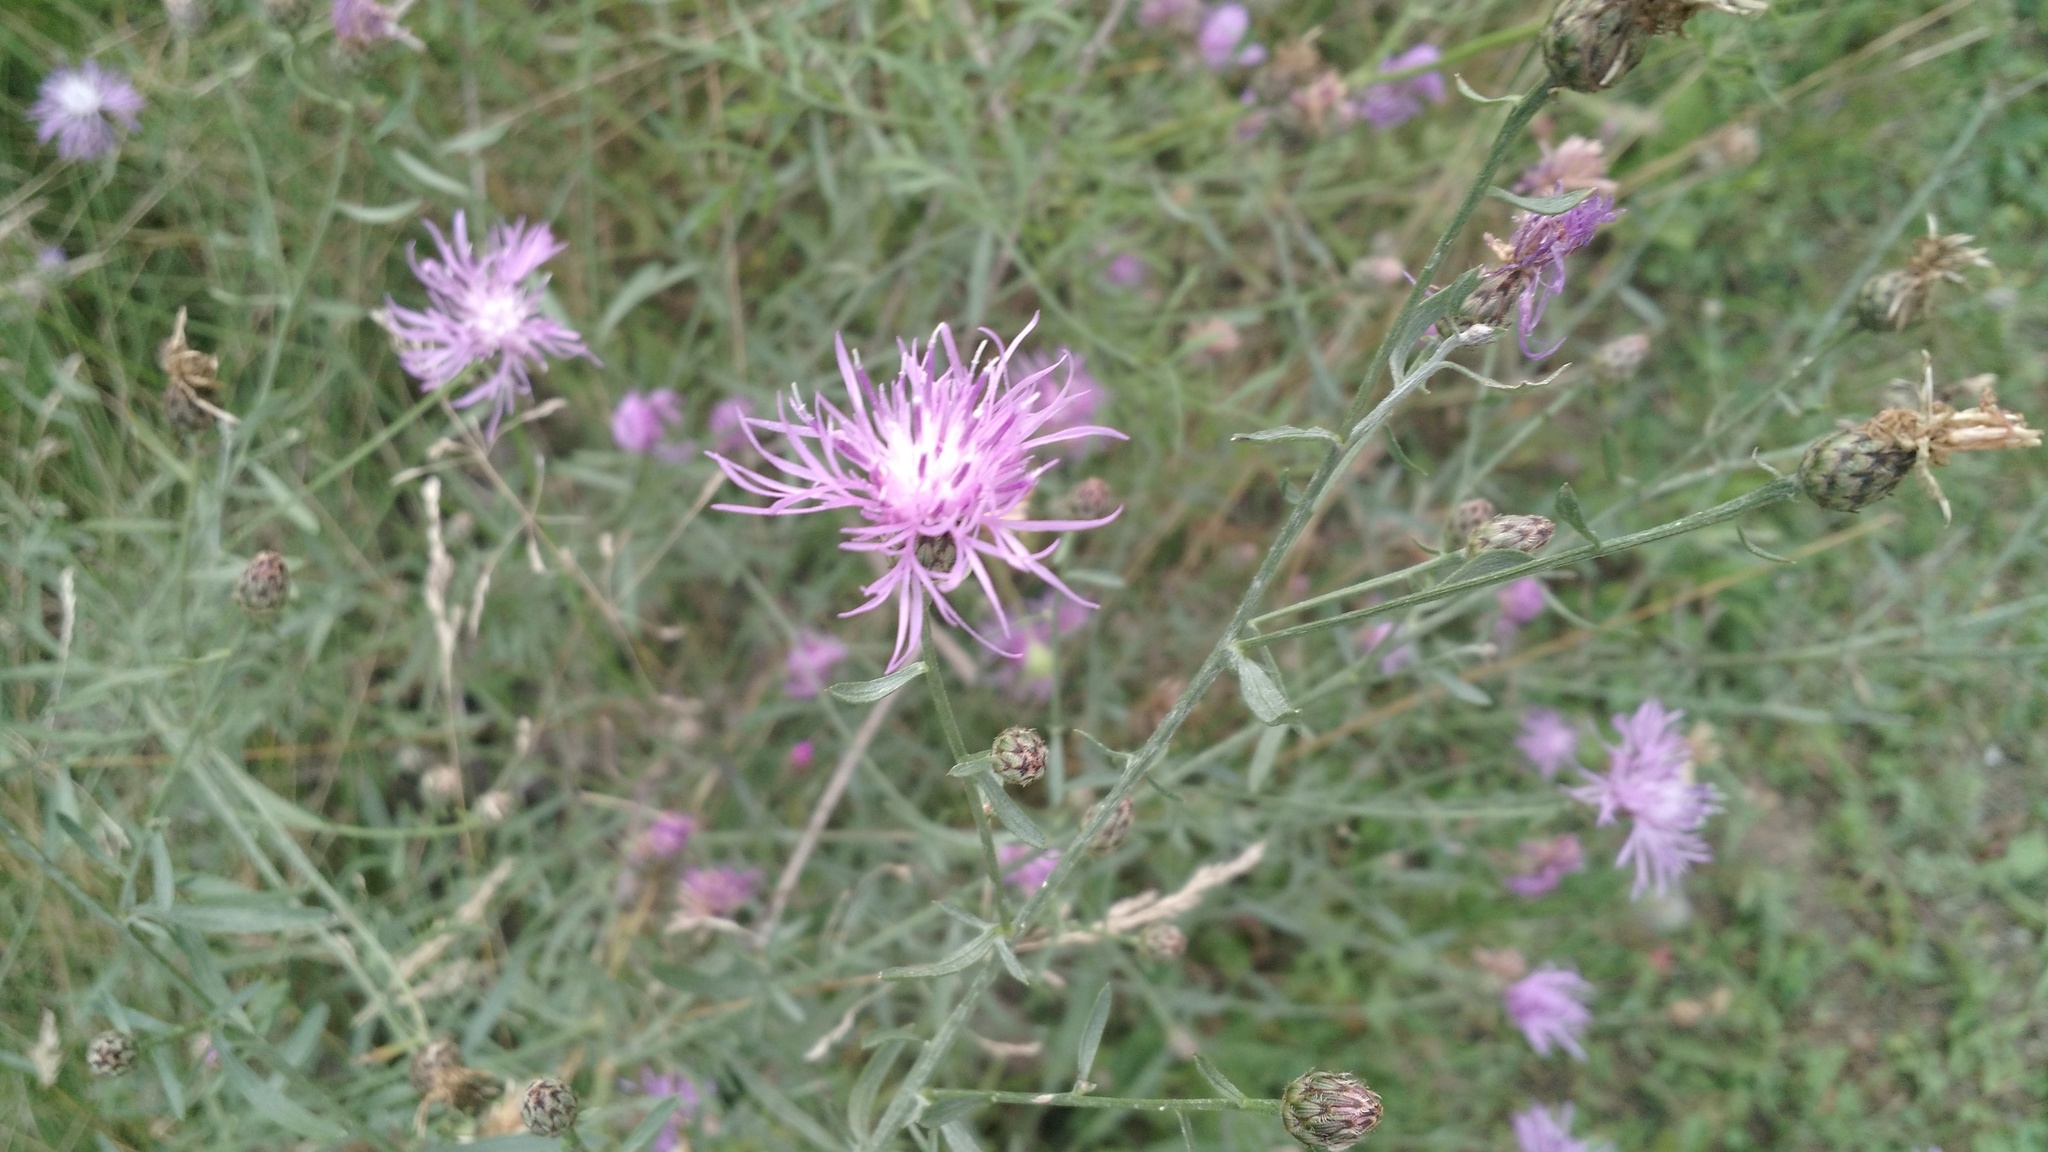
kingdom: Plantae
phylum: Tracheophyta
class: Magnoliopsida
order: Asterales
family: Asteraceae
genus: Centaurea
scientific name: Centaurea stoebe
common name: Spotted knapweed
